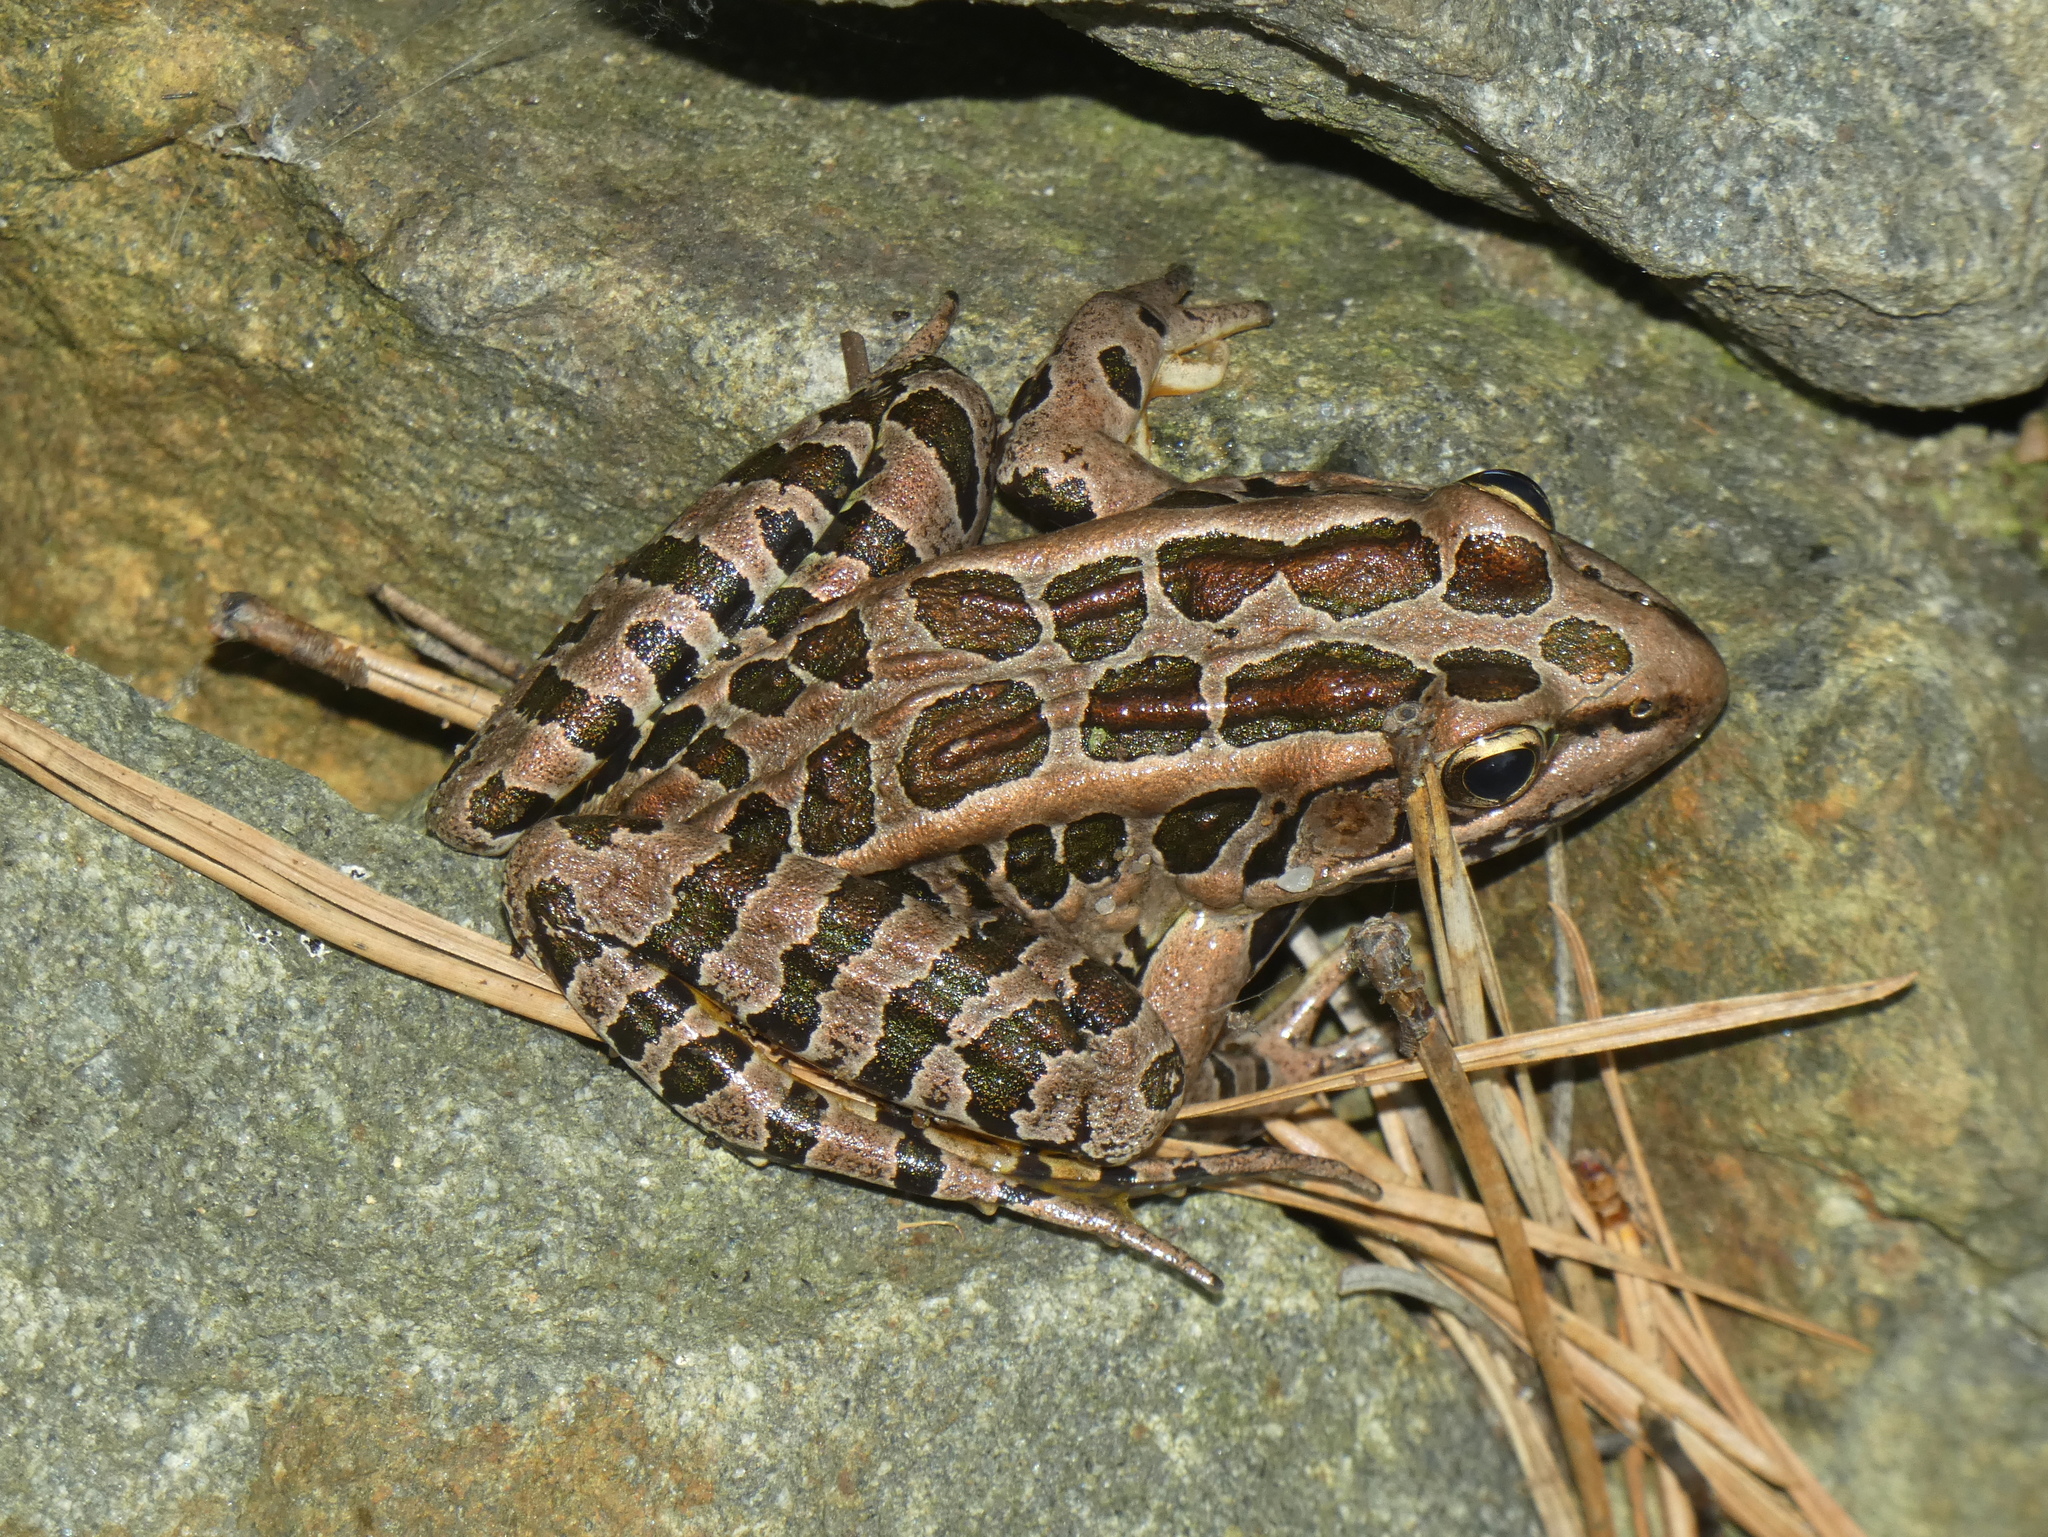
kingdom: Animalia
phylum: Chordata
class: Amphibia
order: Anura
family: Ranidae
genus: Lithobates
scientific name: Lithobates palustris
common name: Pickerel frog
